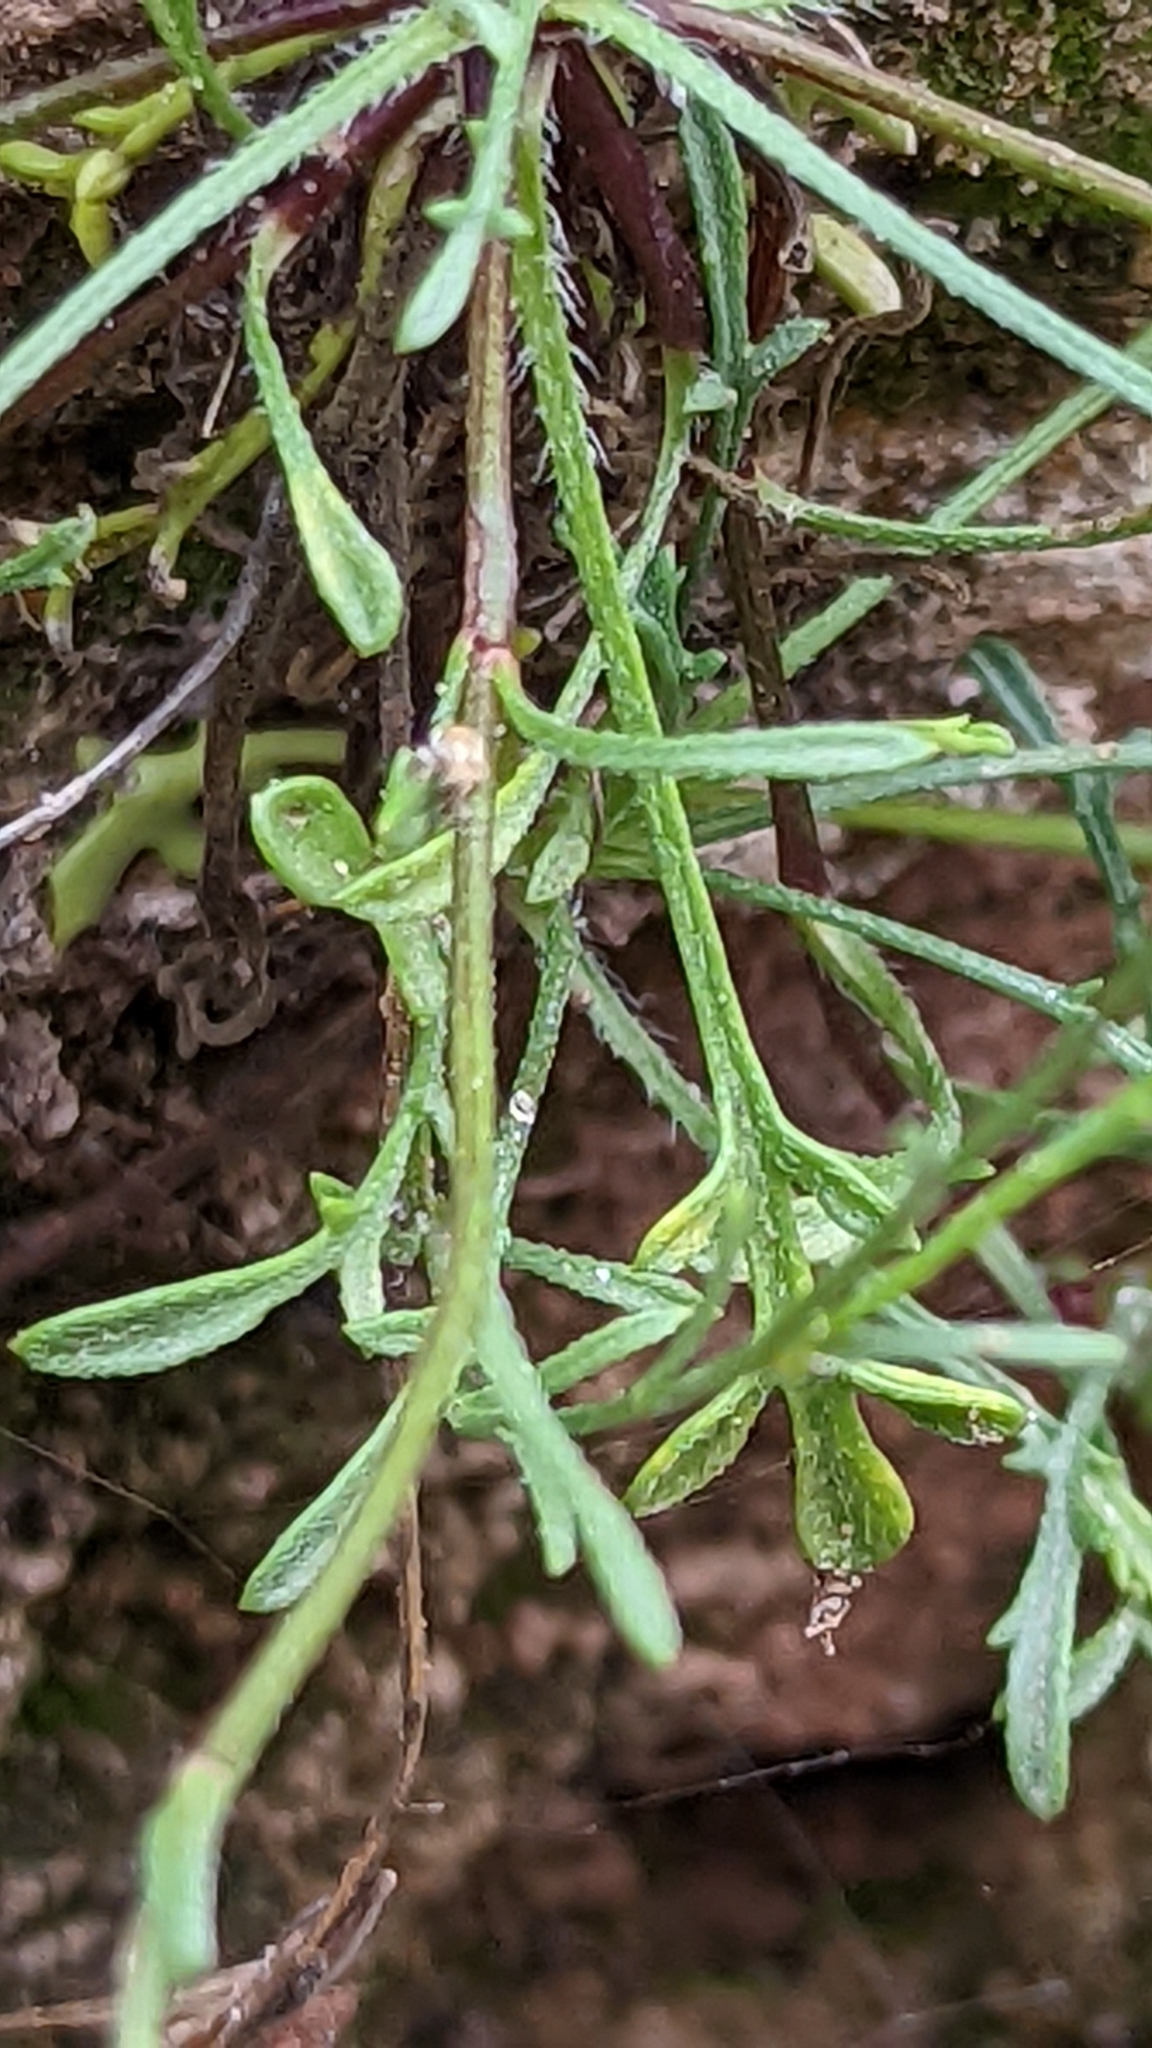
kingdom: Plantae
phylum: Tracheophyta
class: Magnoliopsida
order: Asterales
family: Asteraceae
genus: Erigeron
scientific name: Erigeron sionis
